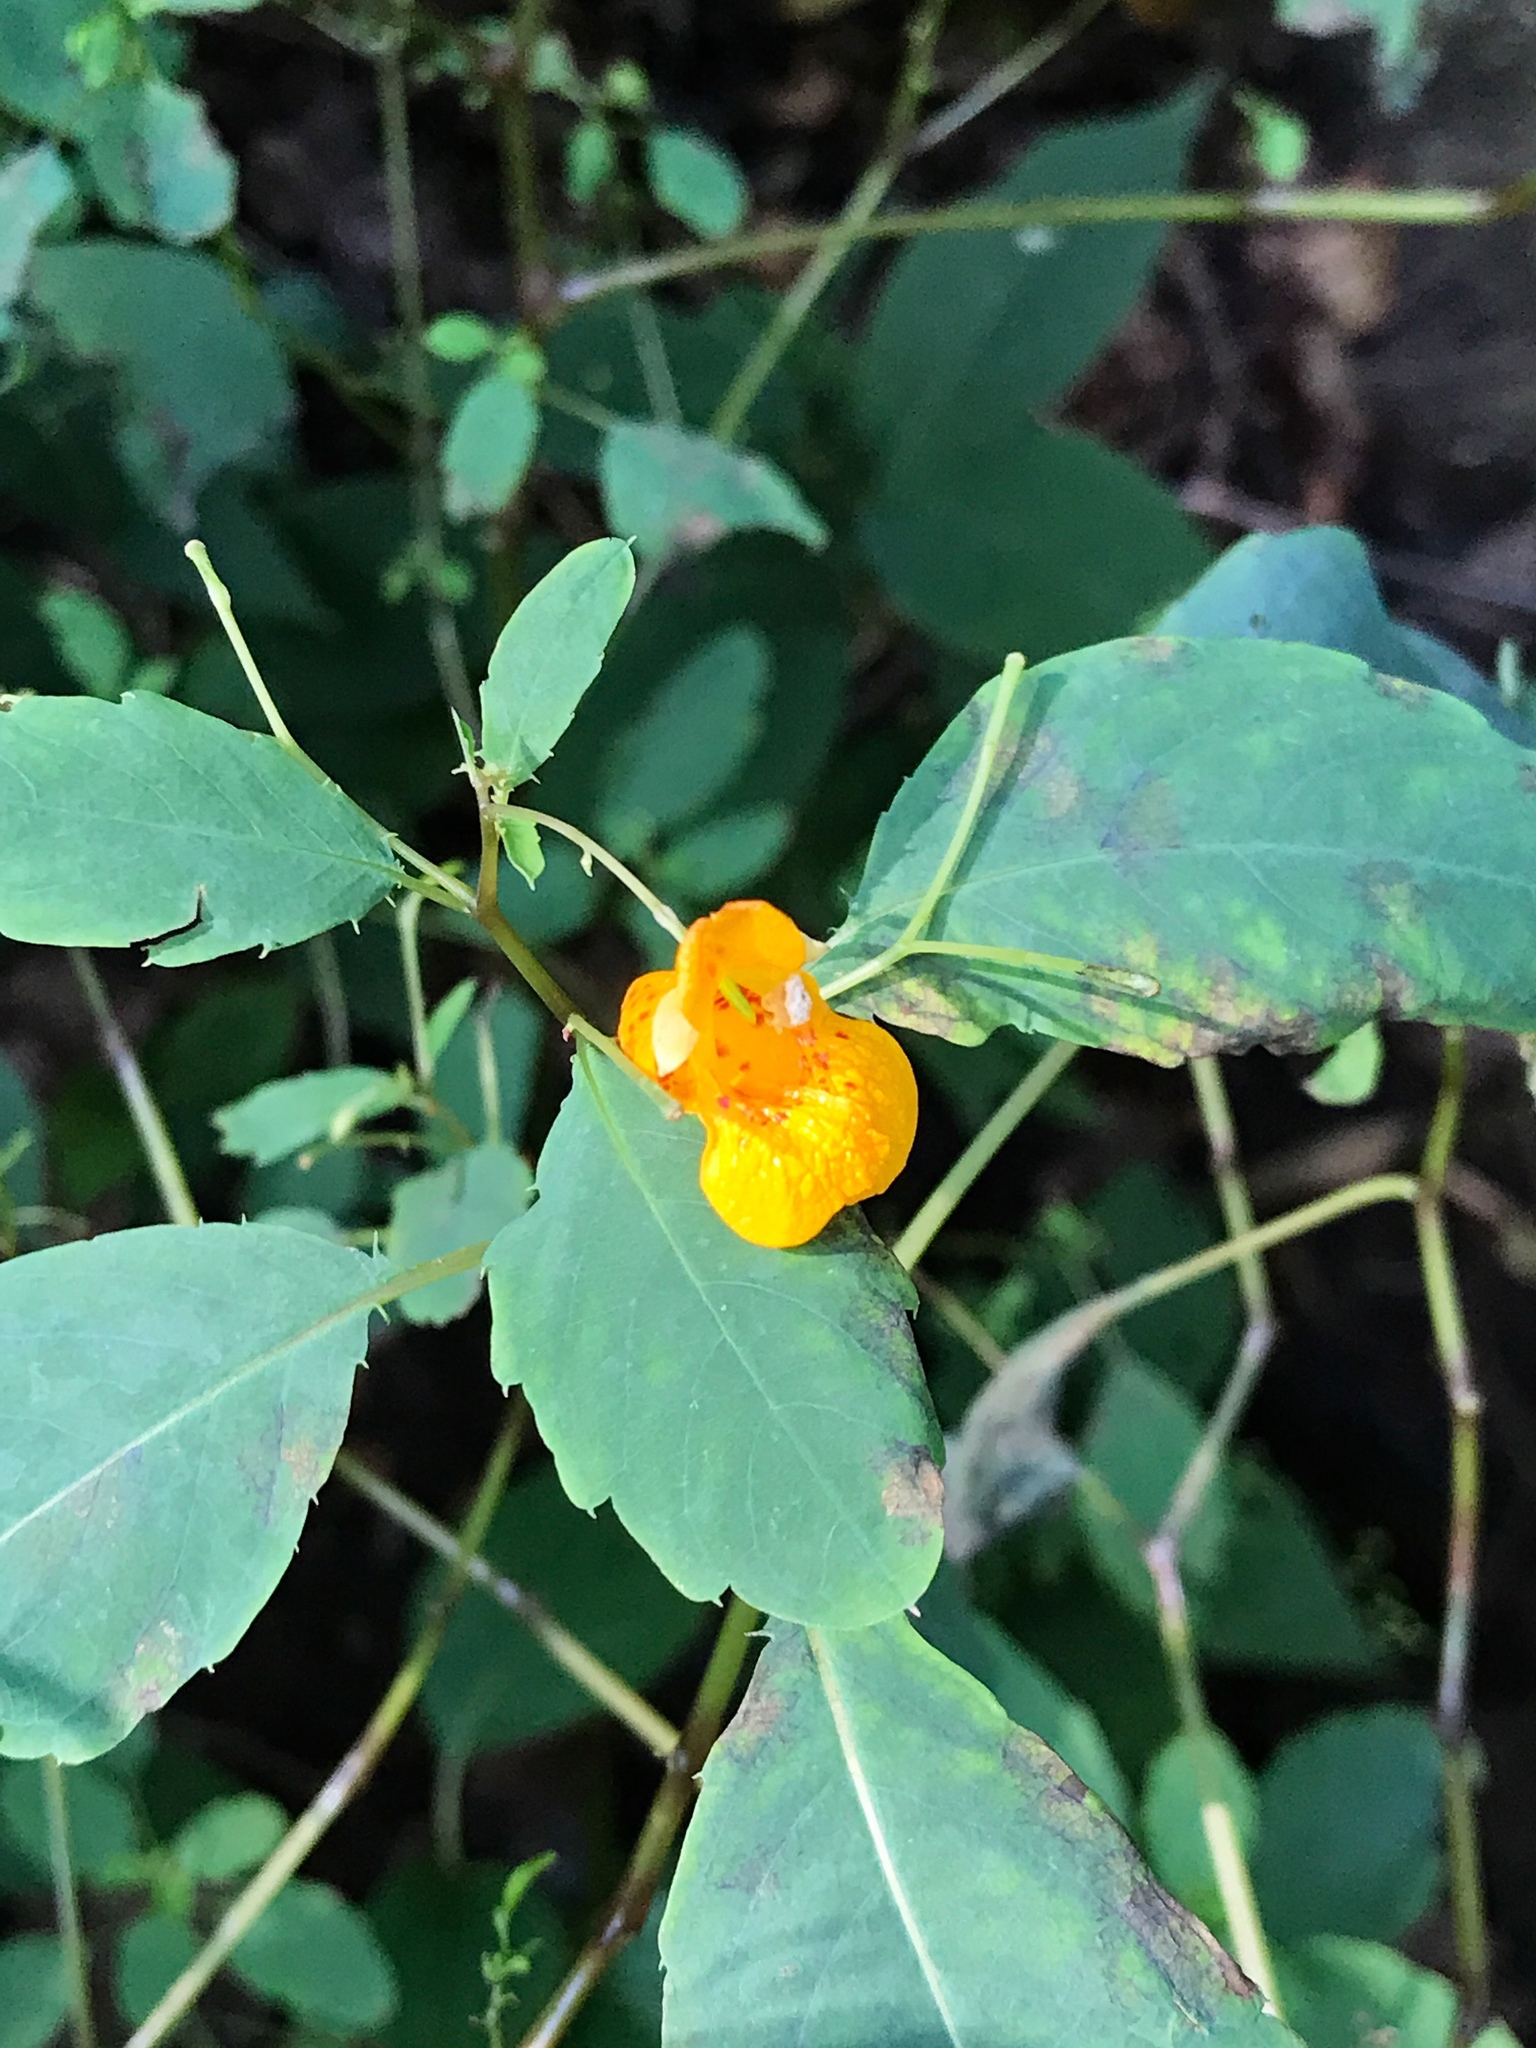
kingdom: Plantae
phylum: Tracheophyta
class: Magnoliopsida
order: Ericales
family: Balsaminaceae
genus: Impatiens
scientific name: Impatiens capensis
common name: Orange balsam
